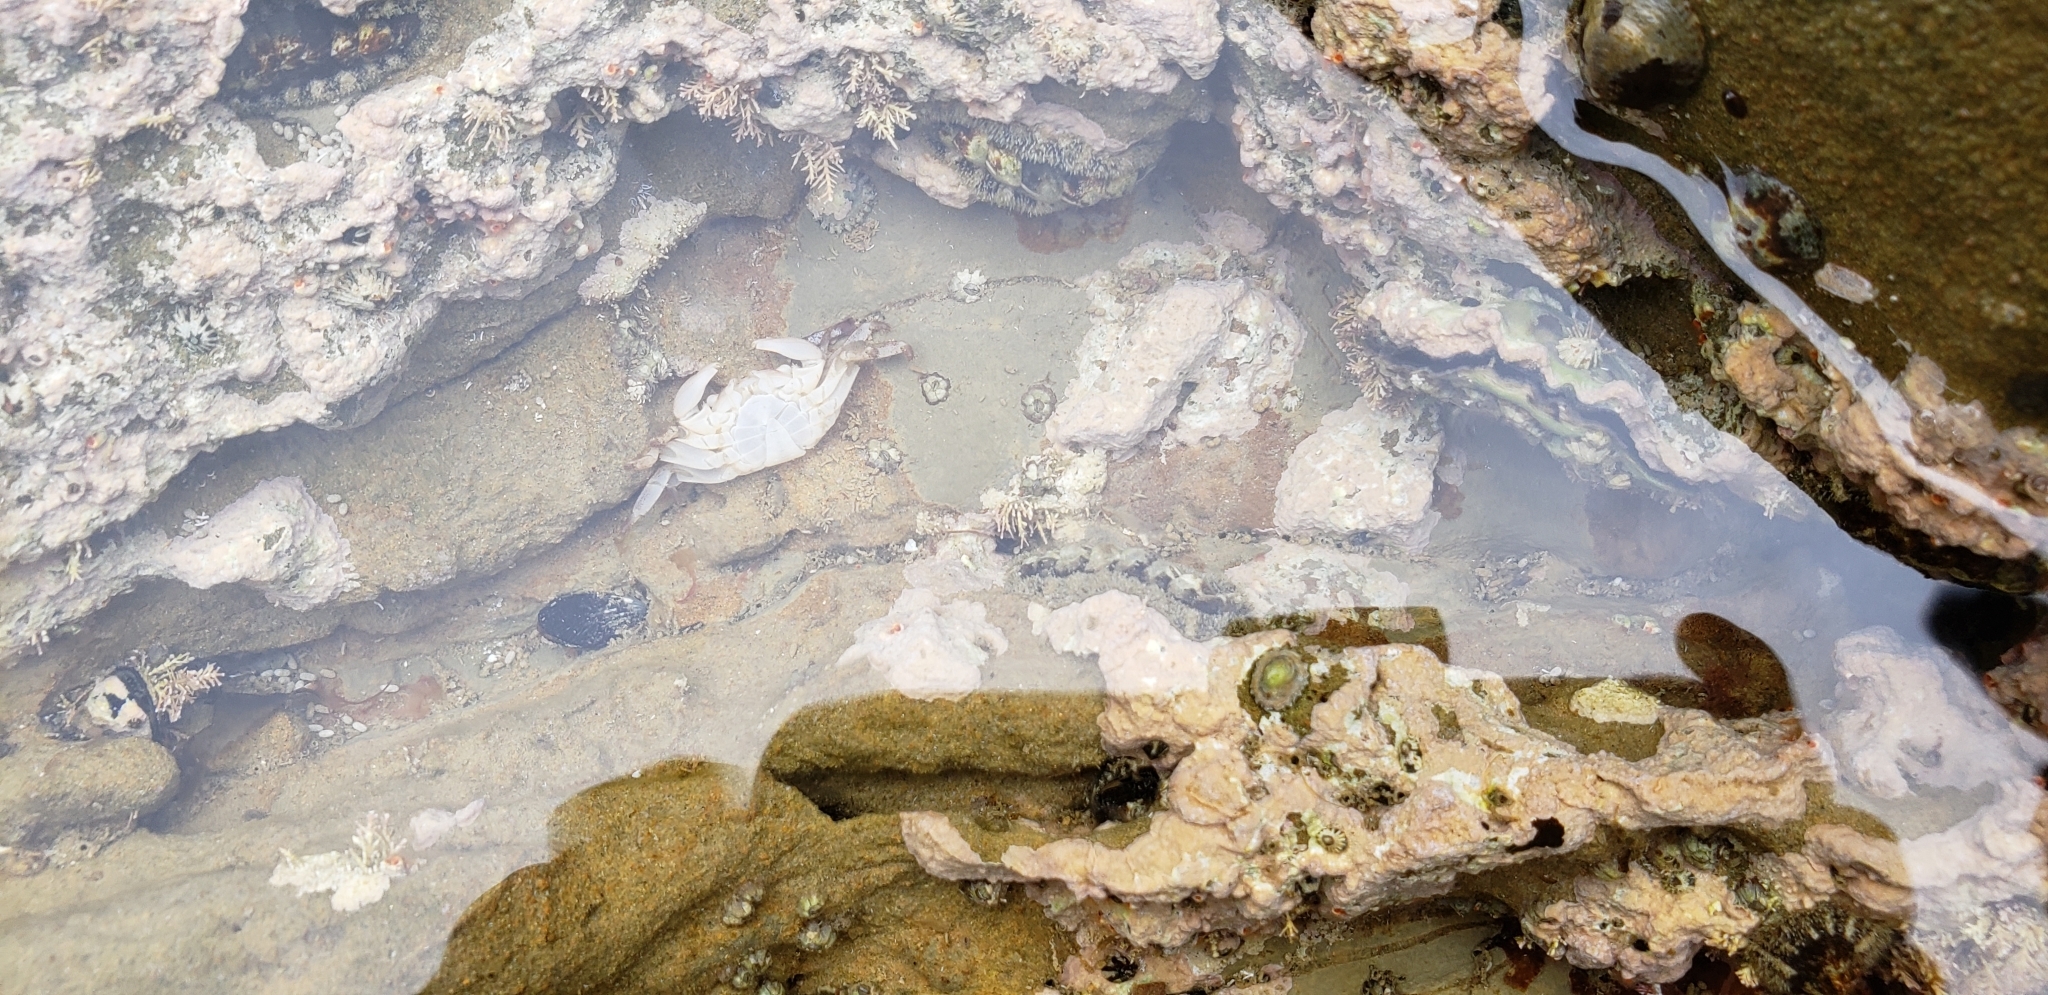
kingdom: Animalia
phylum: Arthropoda
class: Malacostraca
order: Decapoda
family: Grapsidae
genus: Pachygrapsus
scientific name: Pachygrapsus crassipes
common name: Striped shore crab
